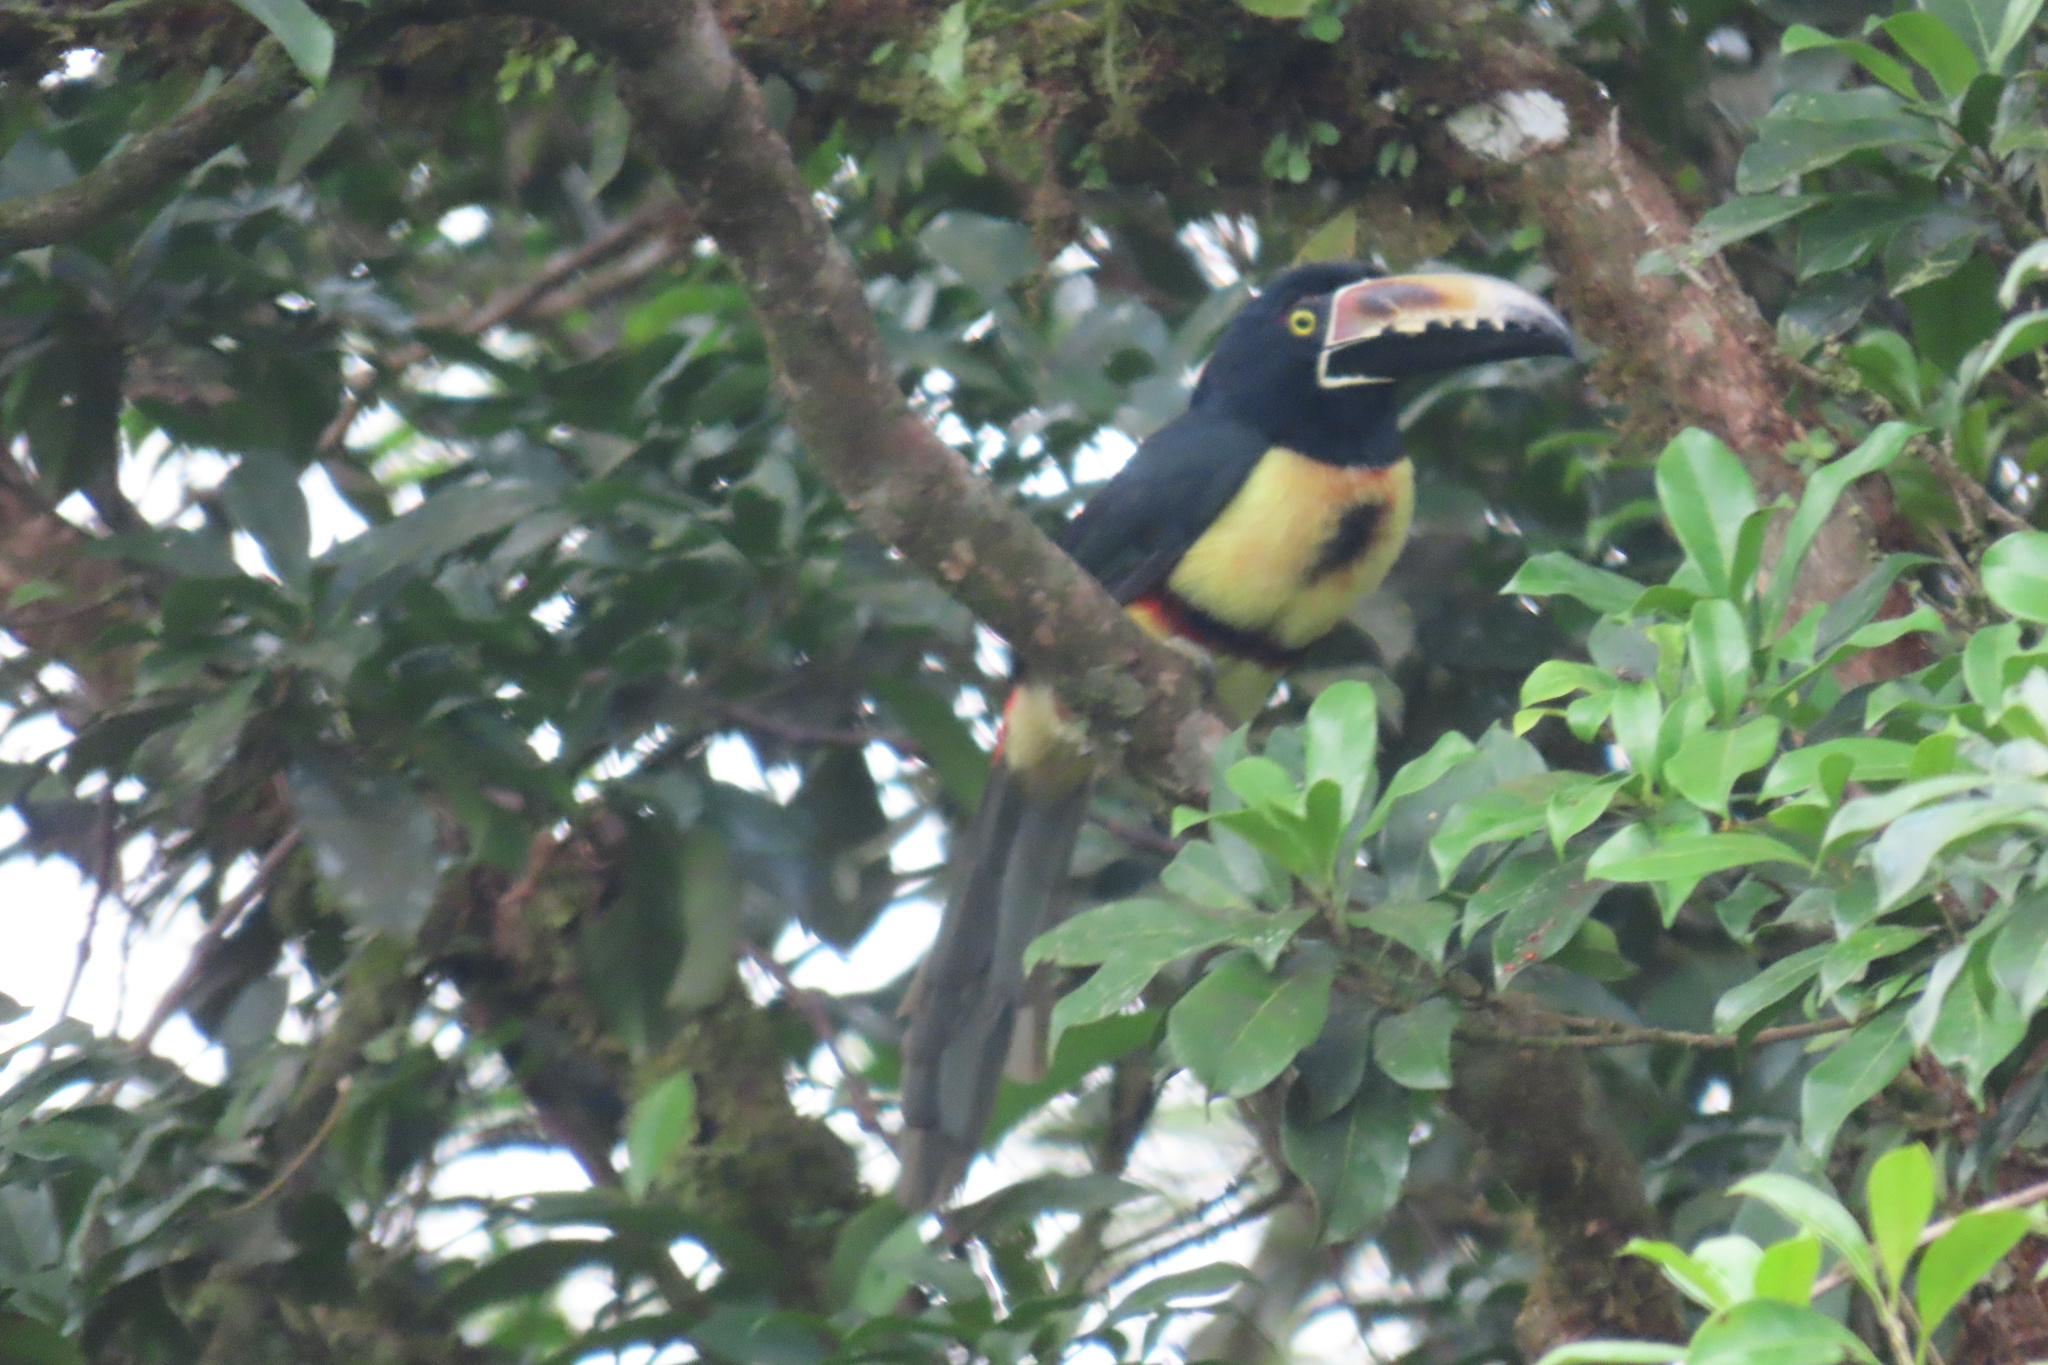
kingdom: Animalia
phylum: Chordata
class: Aves
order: Piciformes
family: Ramphastidae
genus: Pteroglossus
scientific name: Pteroglossus torquatus
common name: Collared aracari
